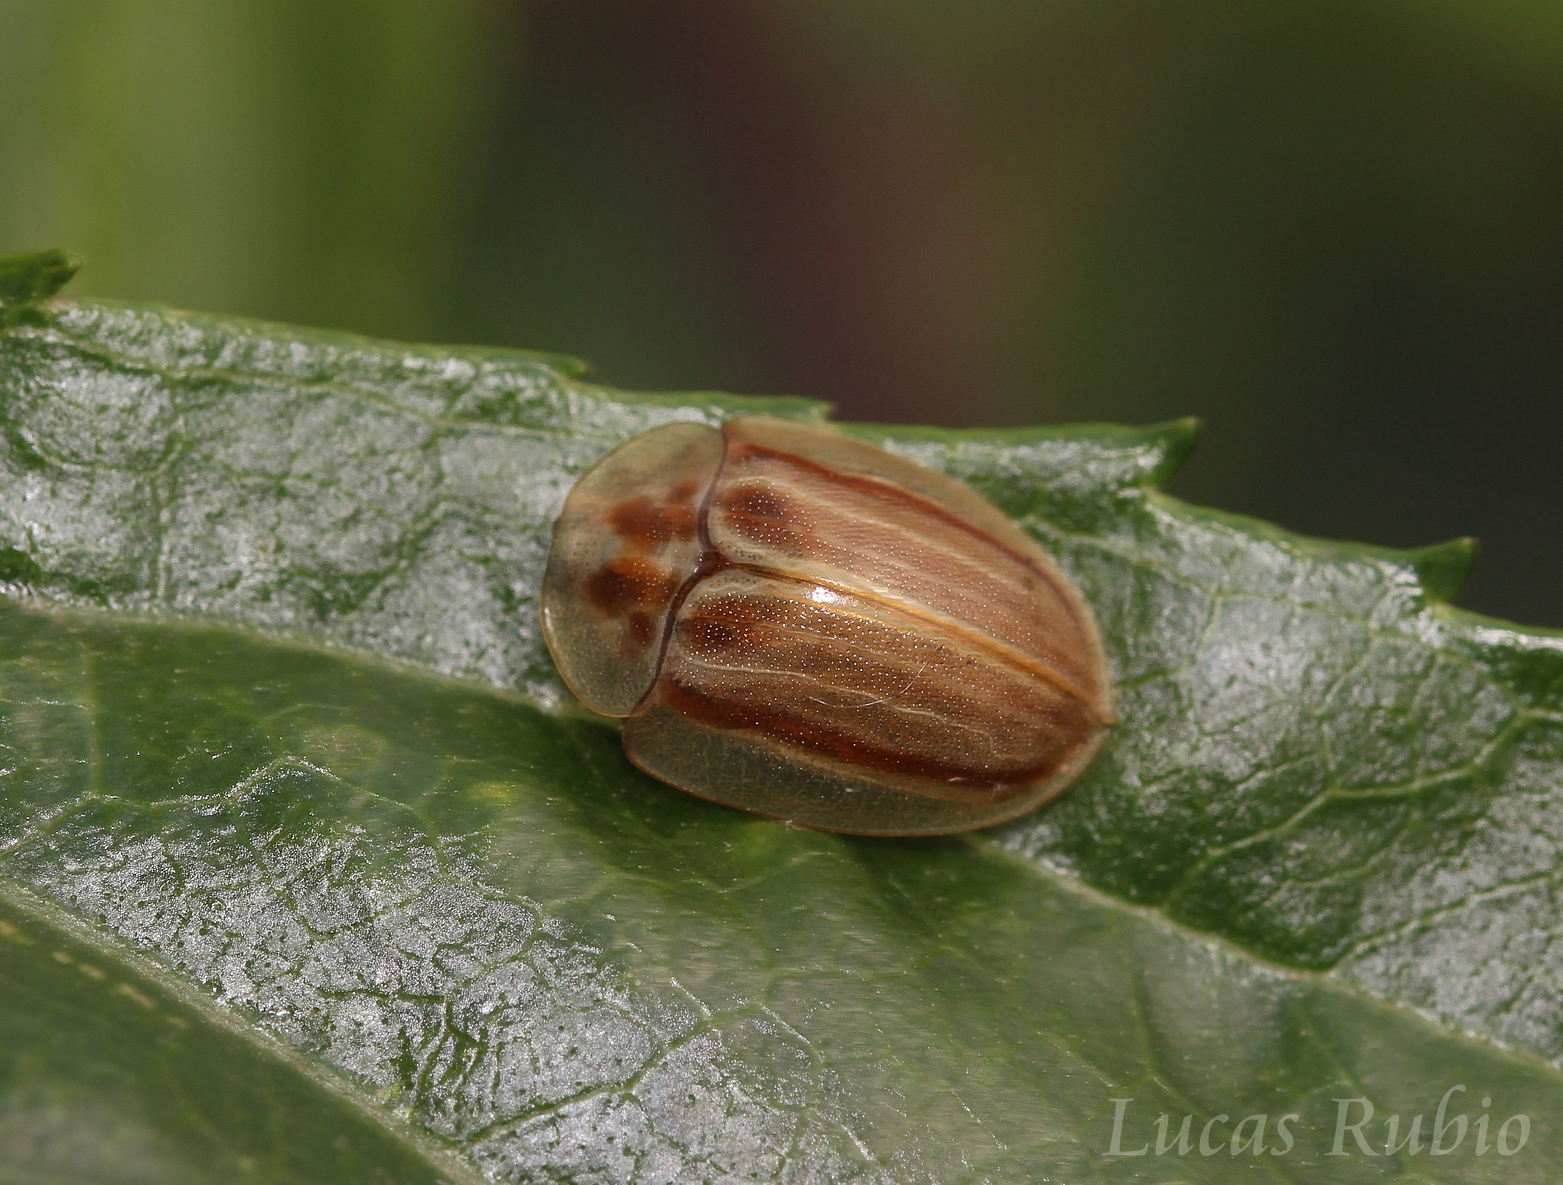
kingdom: Animalia
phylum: Arthropoda
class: Insecta
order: Coleoptera
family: Chrysomelidae
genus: Anacassis
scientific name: Anacassis fuscata
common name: Seepwillow flea beetle
